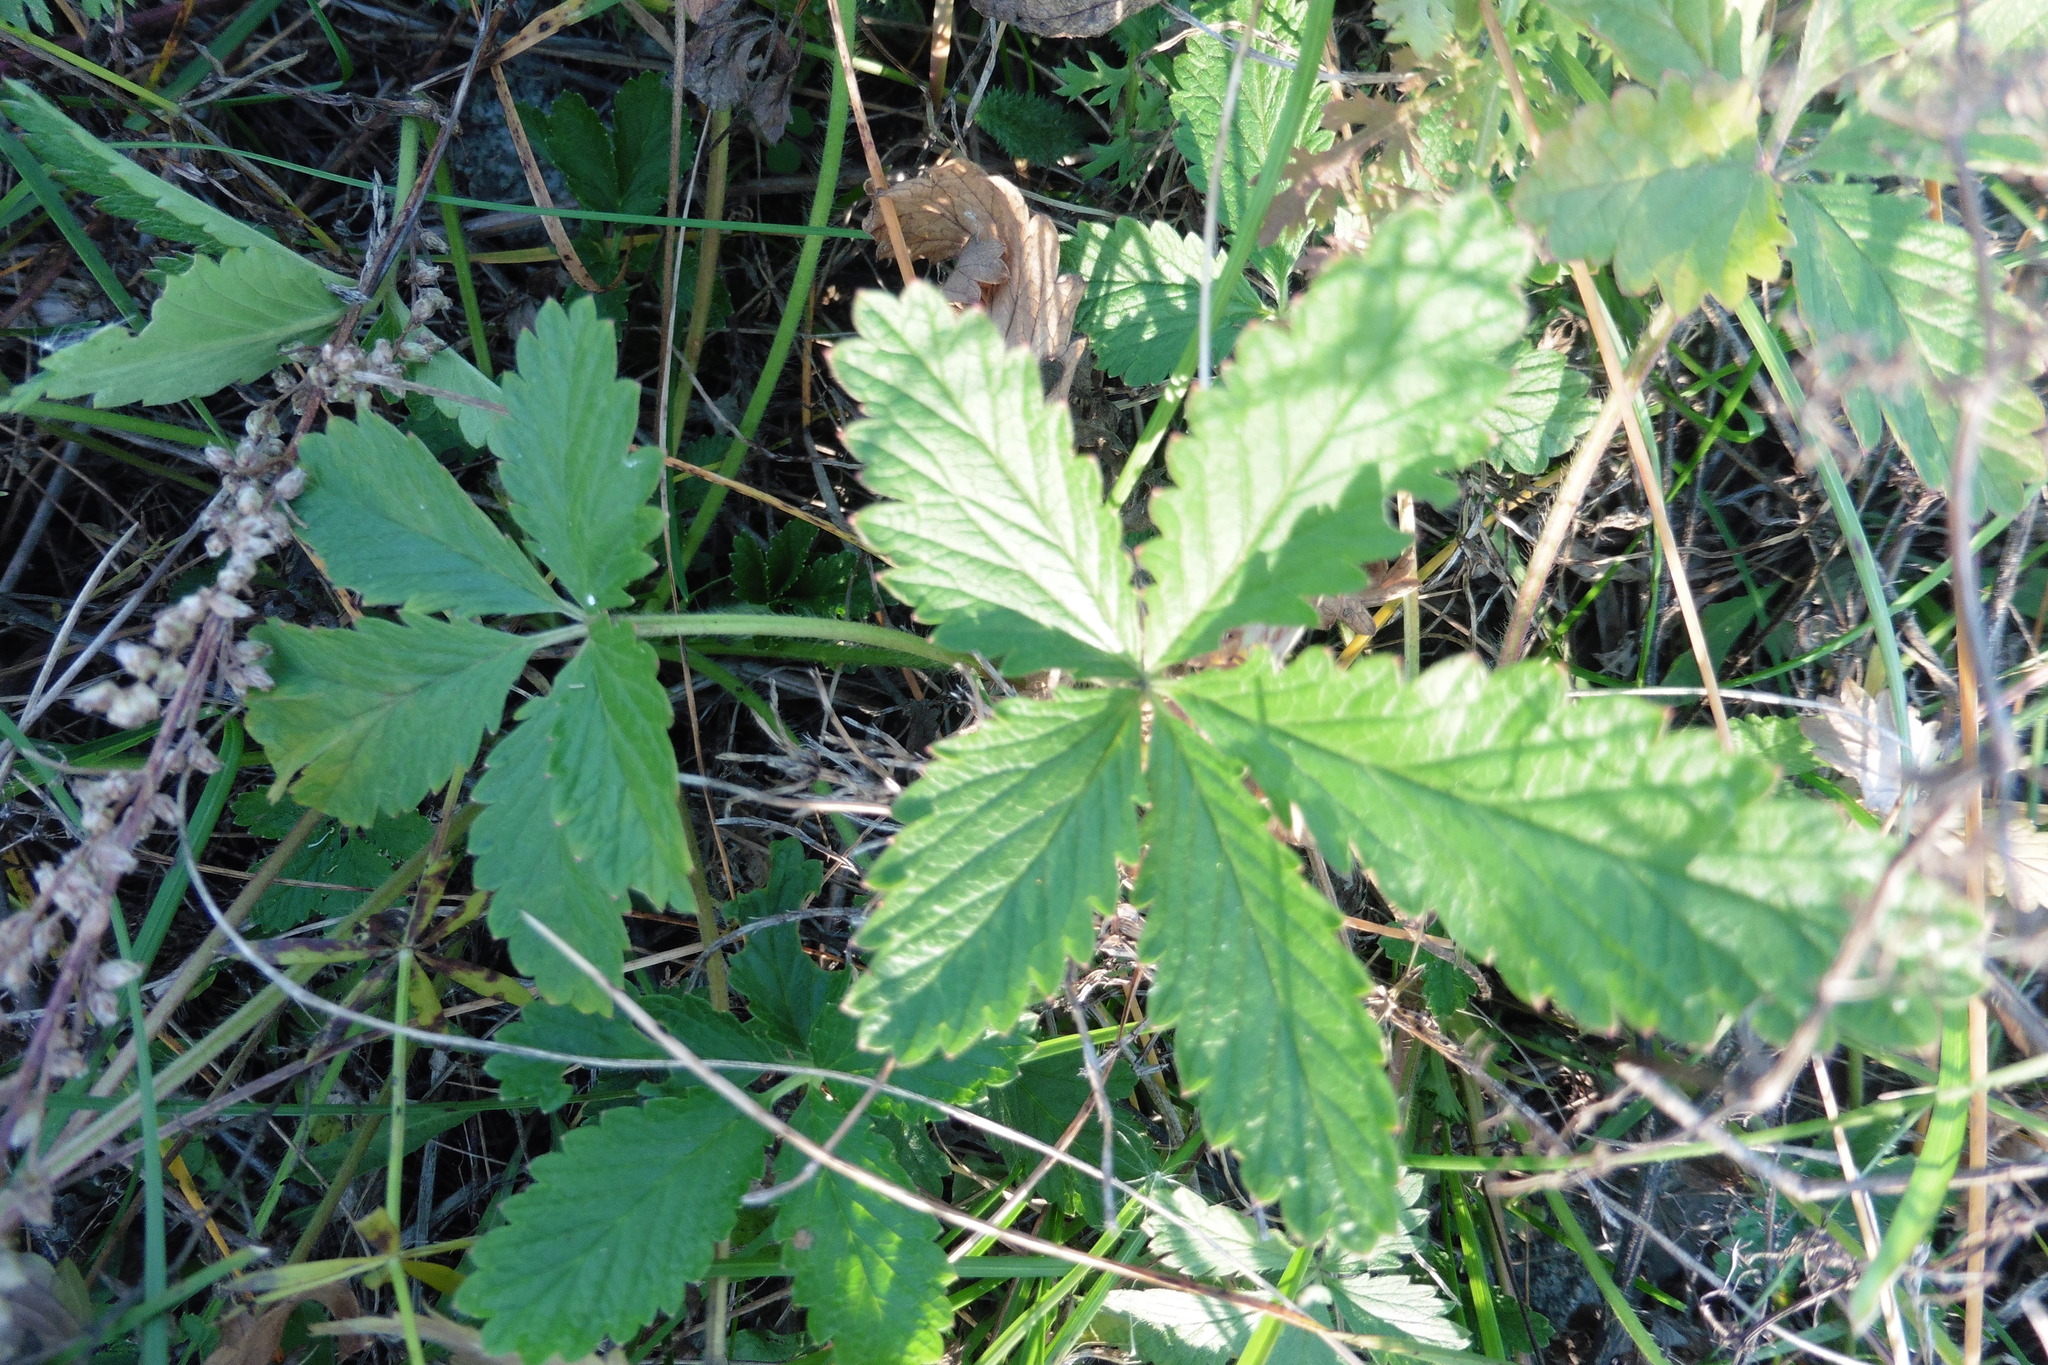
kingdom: Plantae
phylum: Tracheophyta
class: Magnoliopsida
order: Rosales
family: Rosaceae
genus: Potentilla
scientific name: Potentilla intermedia
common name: Downy cinquefoil
